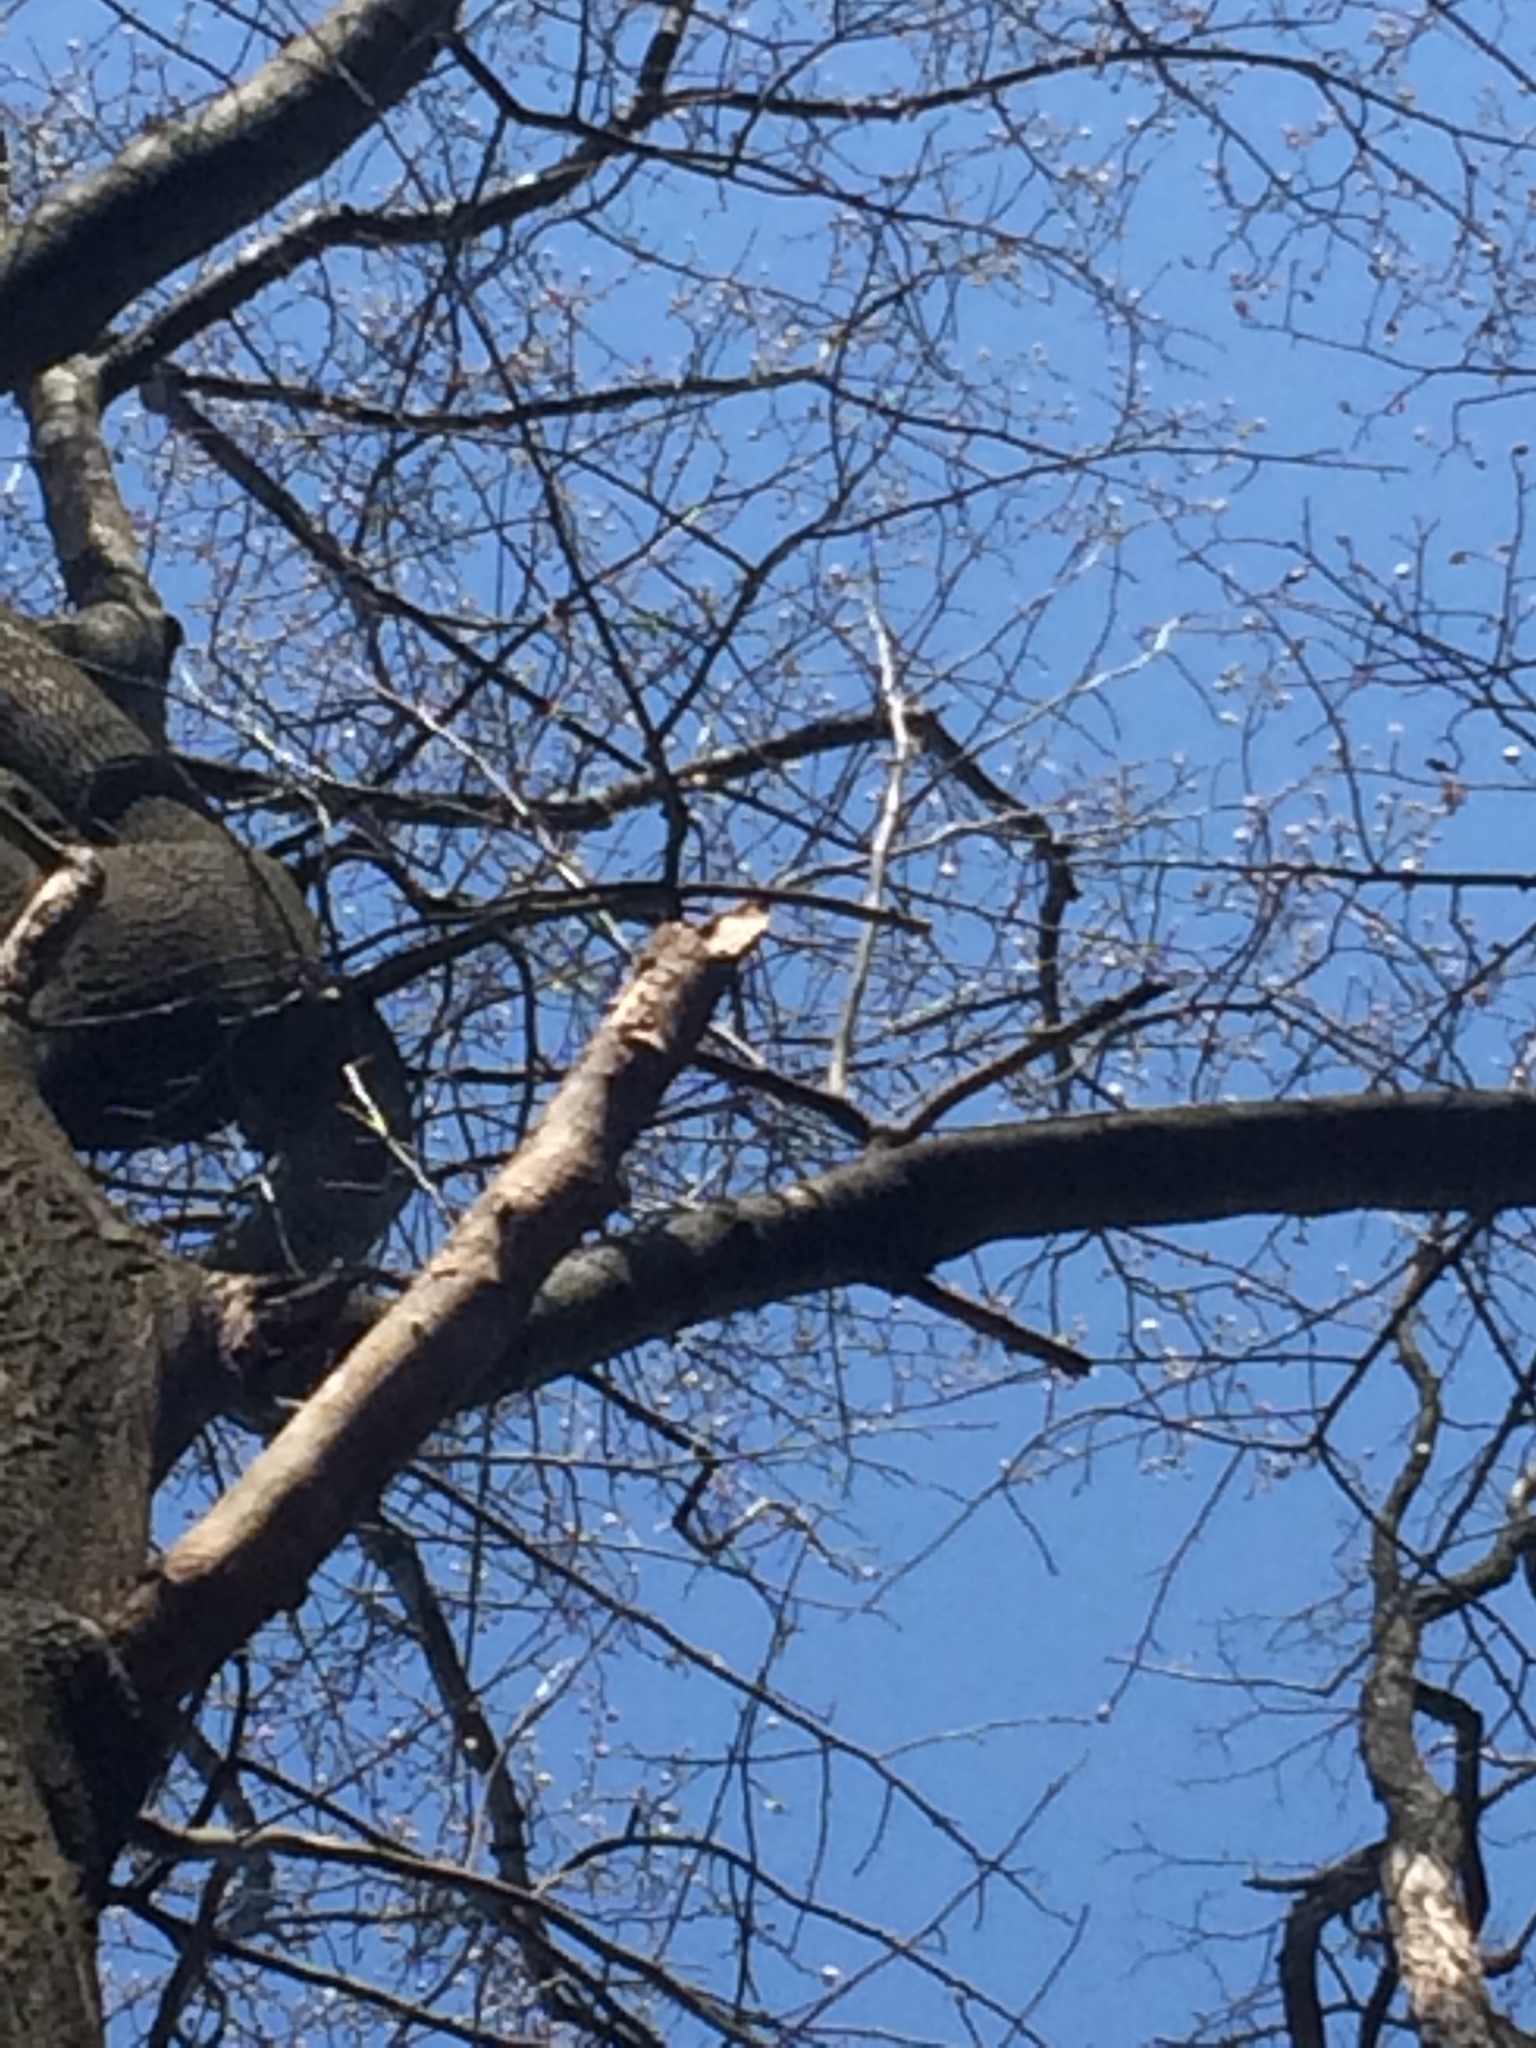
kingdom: Plantae
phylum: Tracheophyta
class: Magnoliopsida
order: Magnoliales
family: Magnoliaceae
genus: Liriodendron
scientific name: Liriodendron tulipifera
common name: Tulip tree
